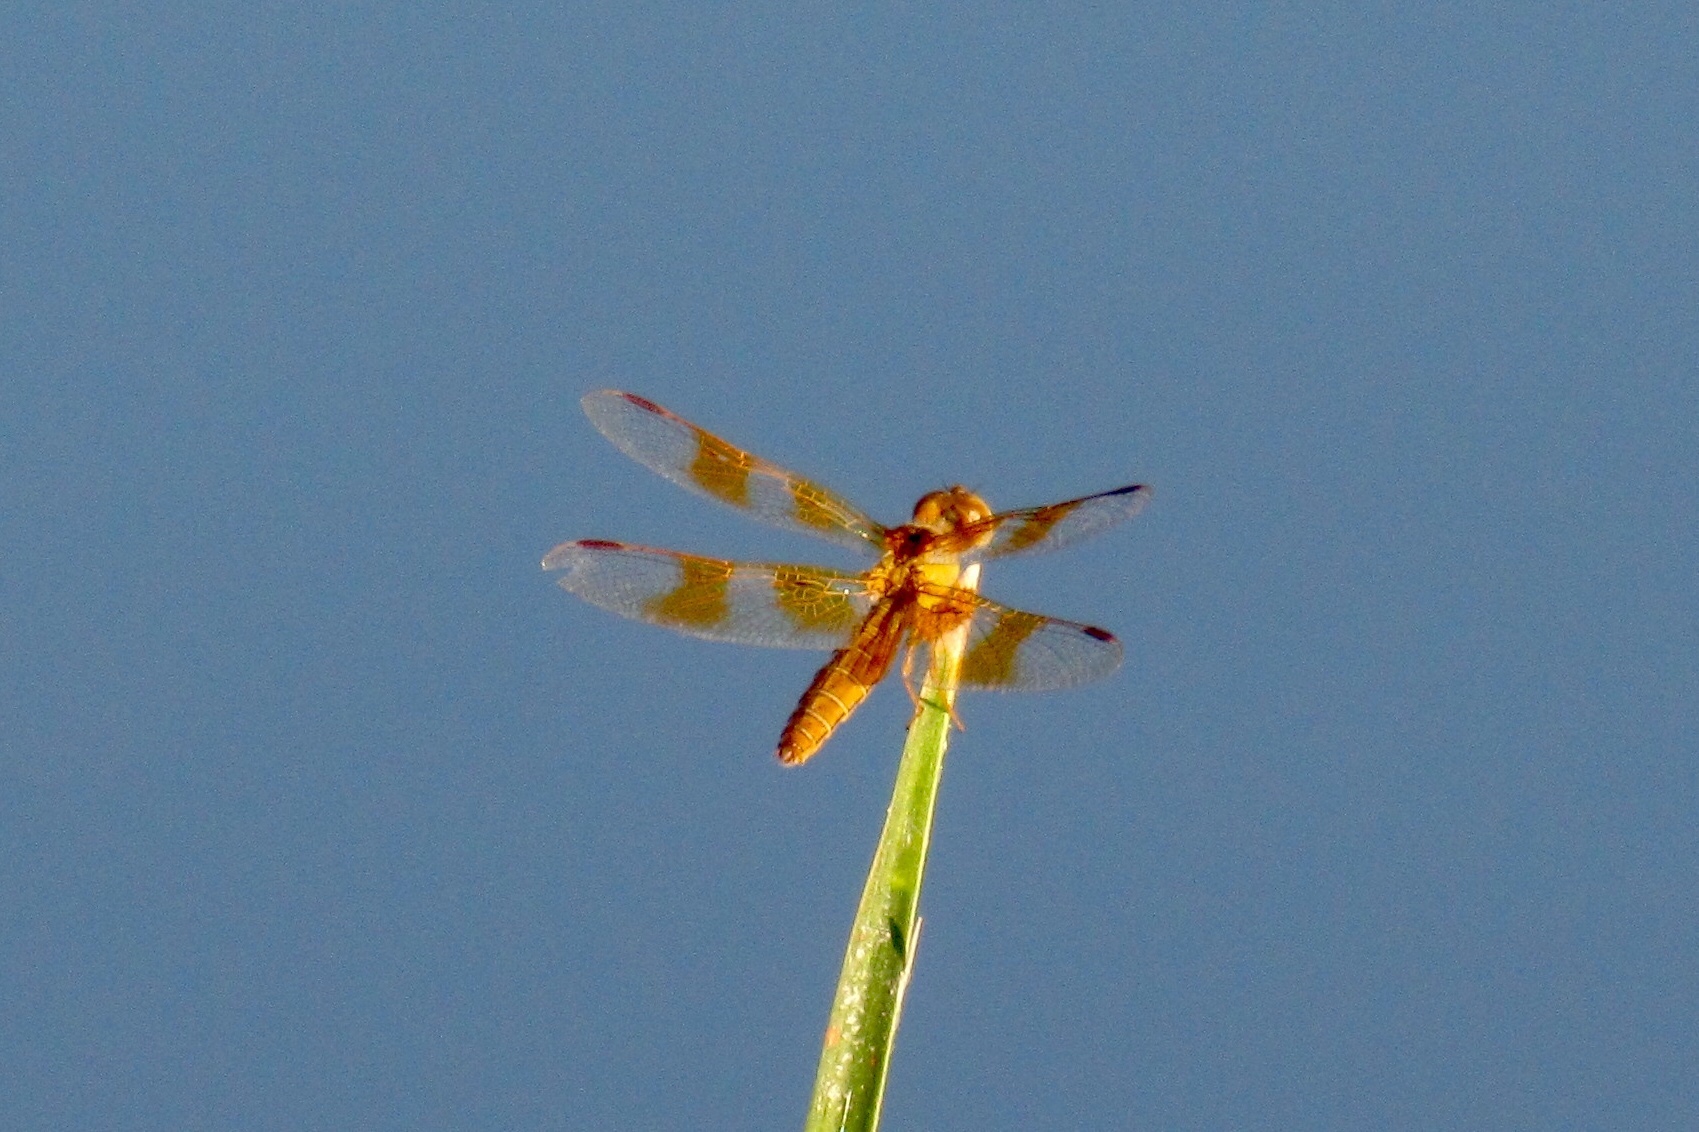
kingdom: Animalia
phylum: Arthropoda
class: Insecta
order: Odonata
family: Libellulidae
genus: Perithemis
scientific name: Perithemis intensa
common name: Mexican amberwing
